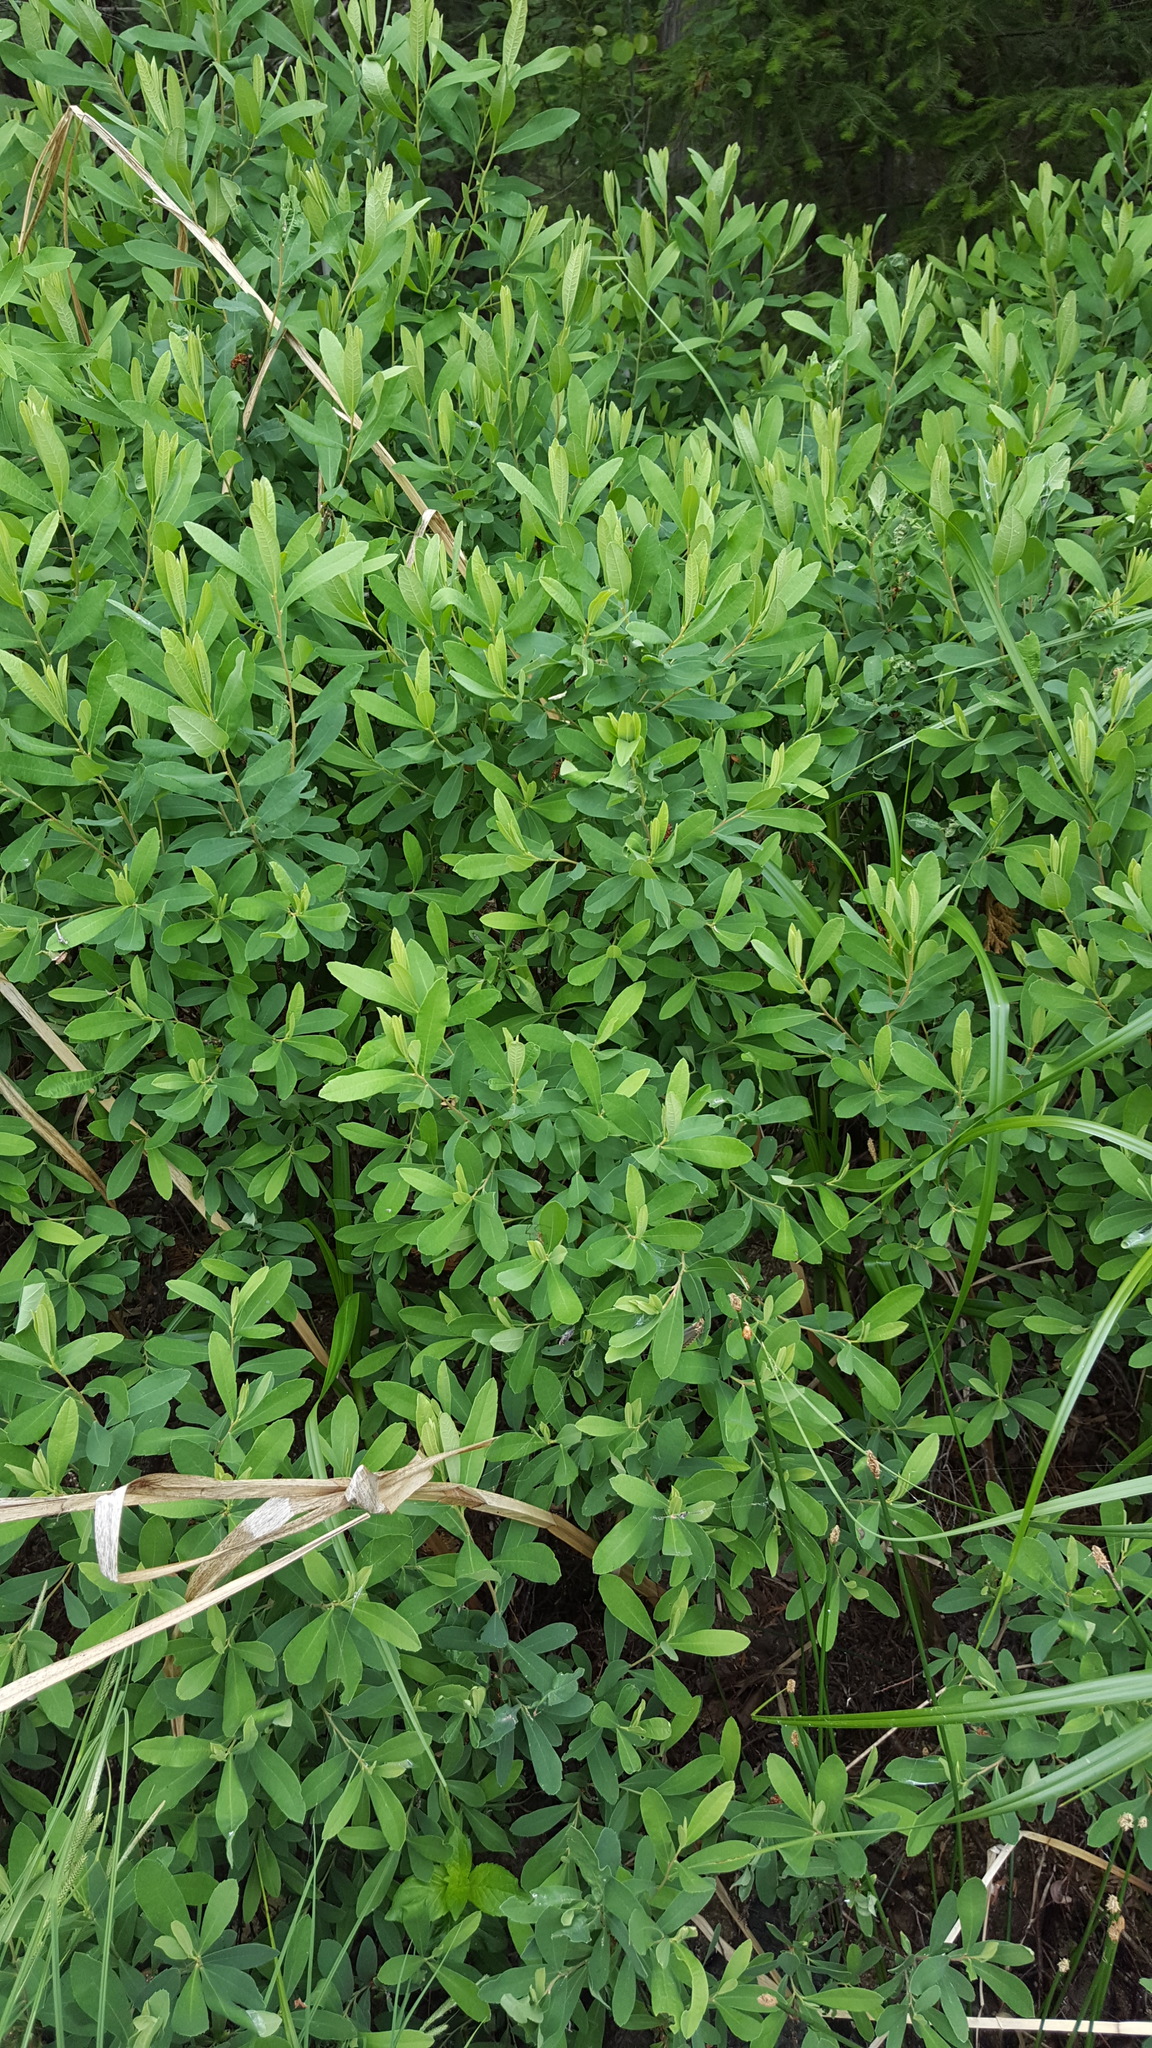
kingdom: Plantae
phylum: Tracheophyta
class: Magnoliopsida
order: Fagales
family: Myricaceae
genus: Myrica
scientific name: Myrica gale
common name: Sweet gale
